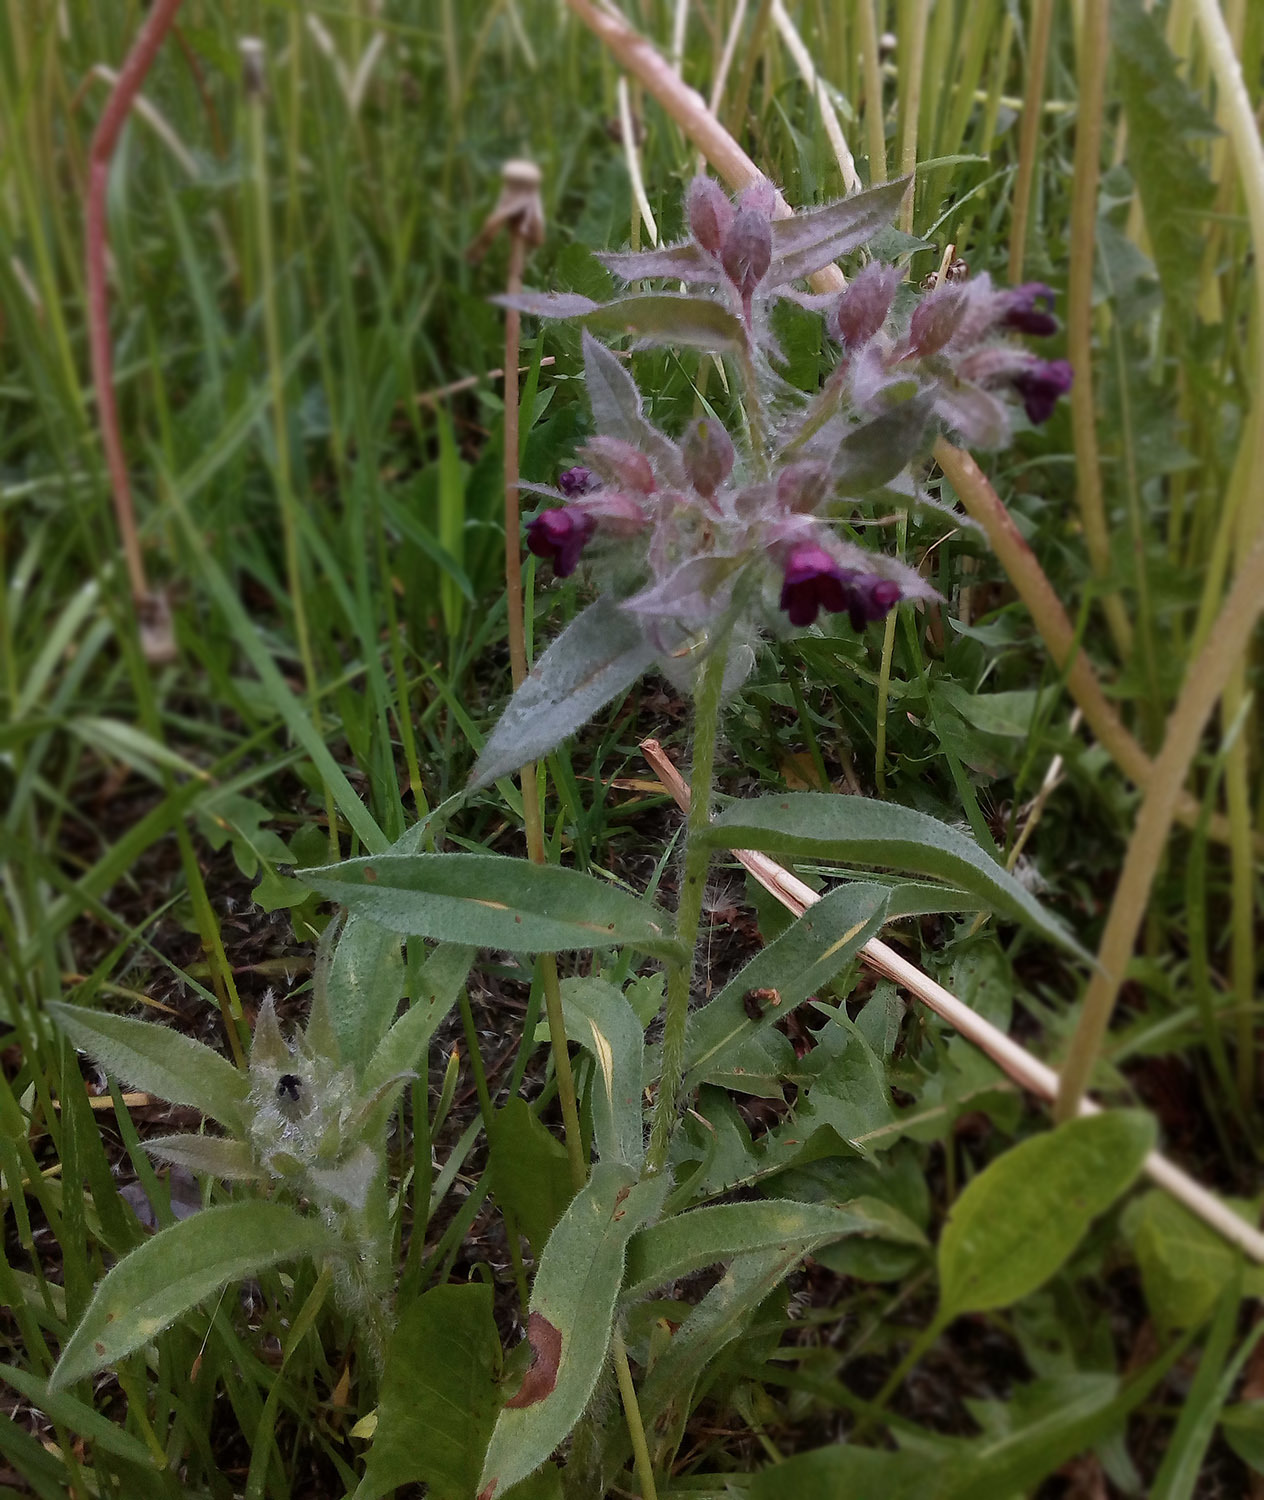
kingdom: Plantae
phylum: Tracheophyta
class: Magnoliopsida
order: Boraginales
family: Boraginaceae
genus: Nonea
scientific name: Nonea pulla
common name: Brown nonea
